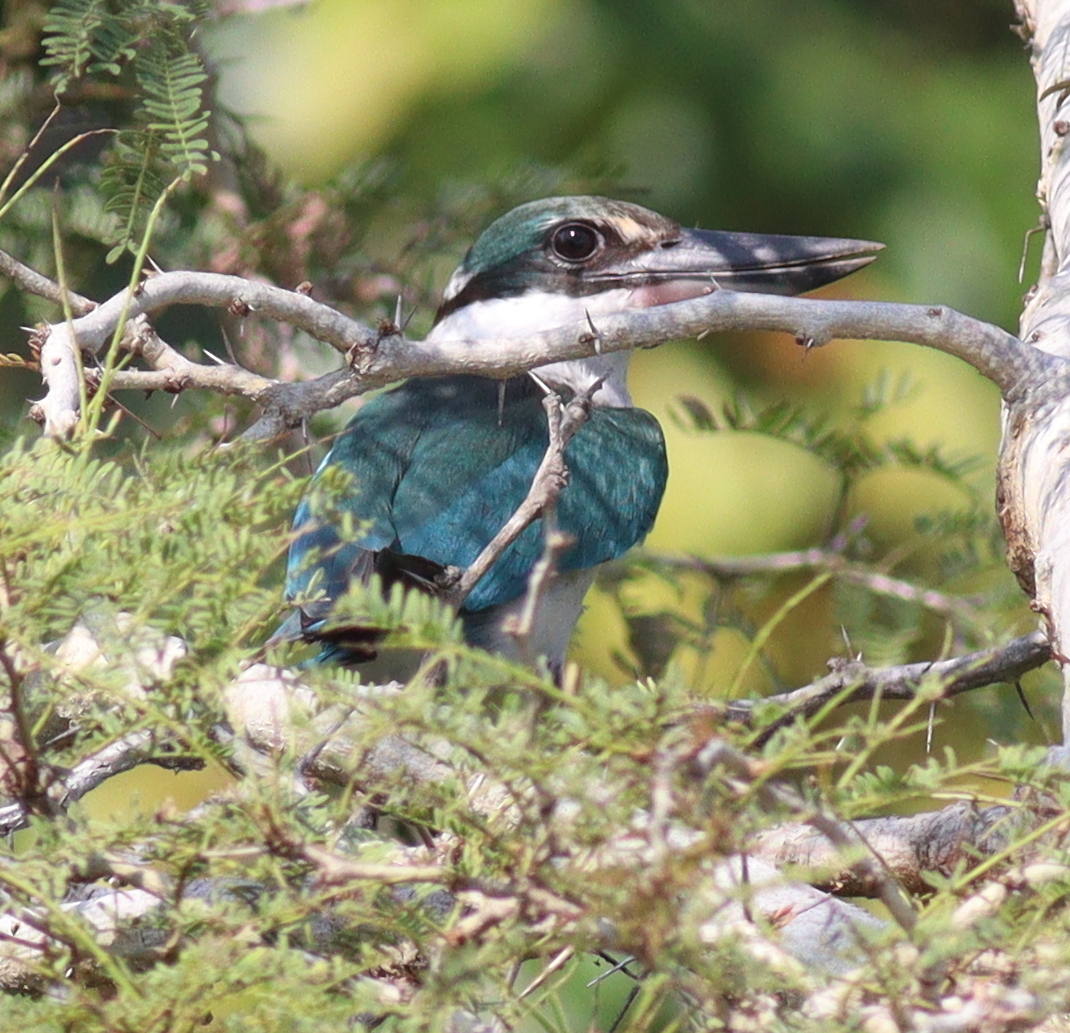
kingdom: Animalia
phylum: Chordata
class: Aves
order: Coraciiformes
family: Alcedinidae
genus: Todiramphus
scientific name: Todiramphus chloris
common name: Collared kingfisher
